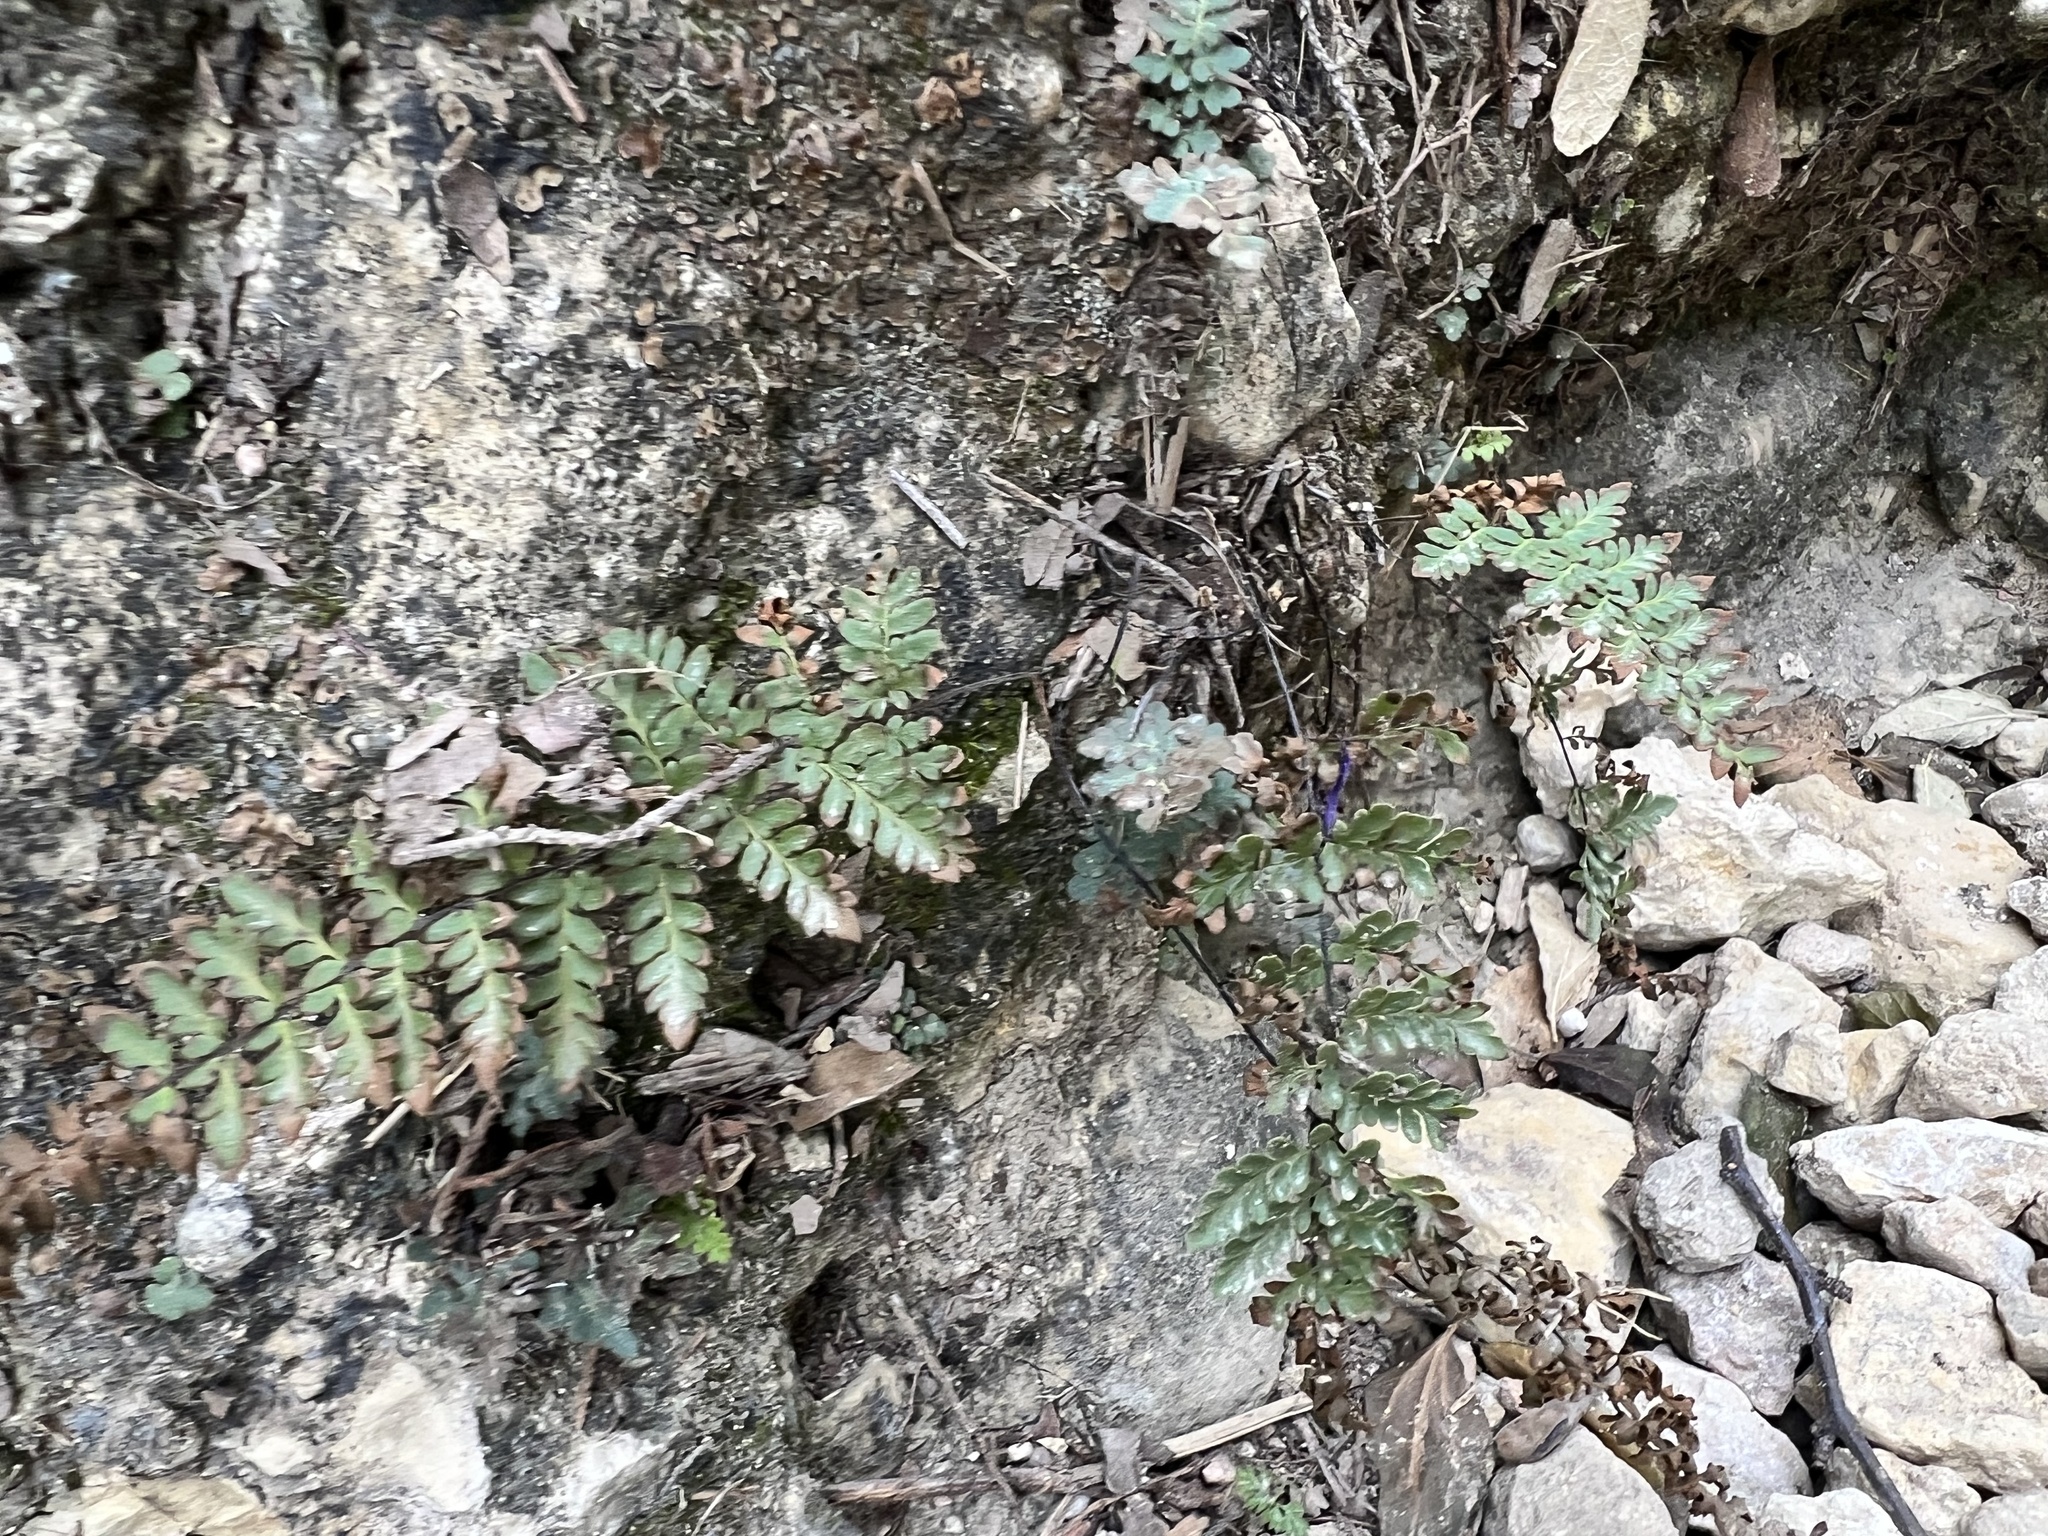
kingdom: Plantae
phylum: Tracheophyta
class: Polypodiopsida
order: Polypodiales
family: Pteridaceae
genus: Myriopteris
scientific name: Myriopteris alabamensis
